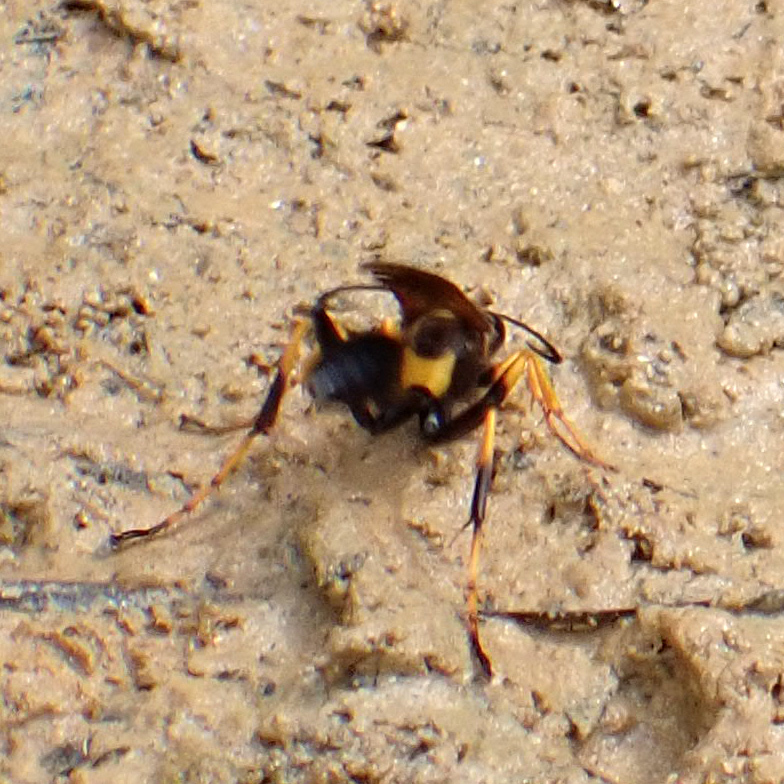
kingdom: Animalia
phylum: Arthropoda
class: Insecta
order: Hymenoptera
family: Sphecidae
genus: Sceliphron
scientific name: Sceliphron caementarium
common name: Mud dauber
